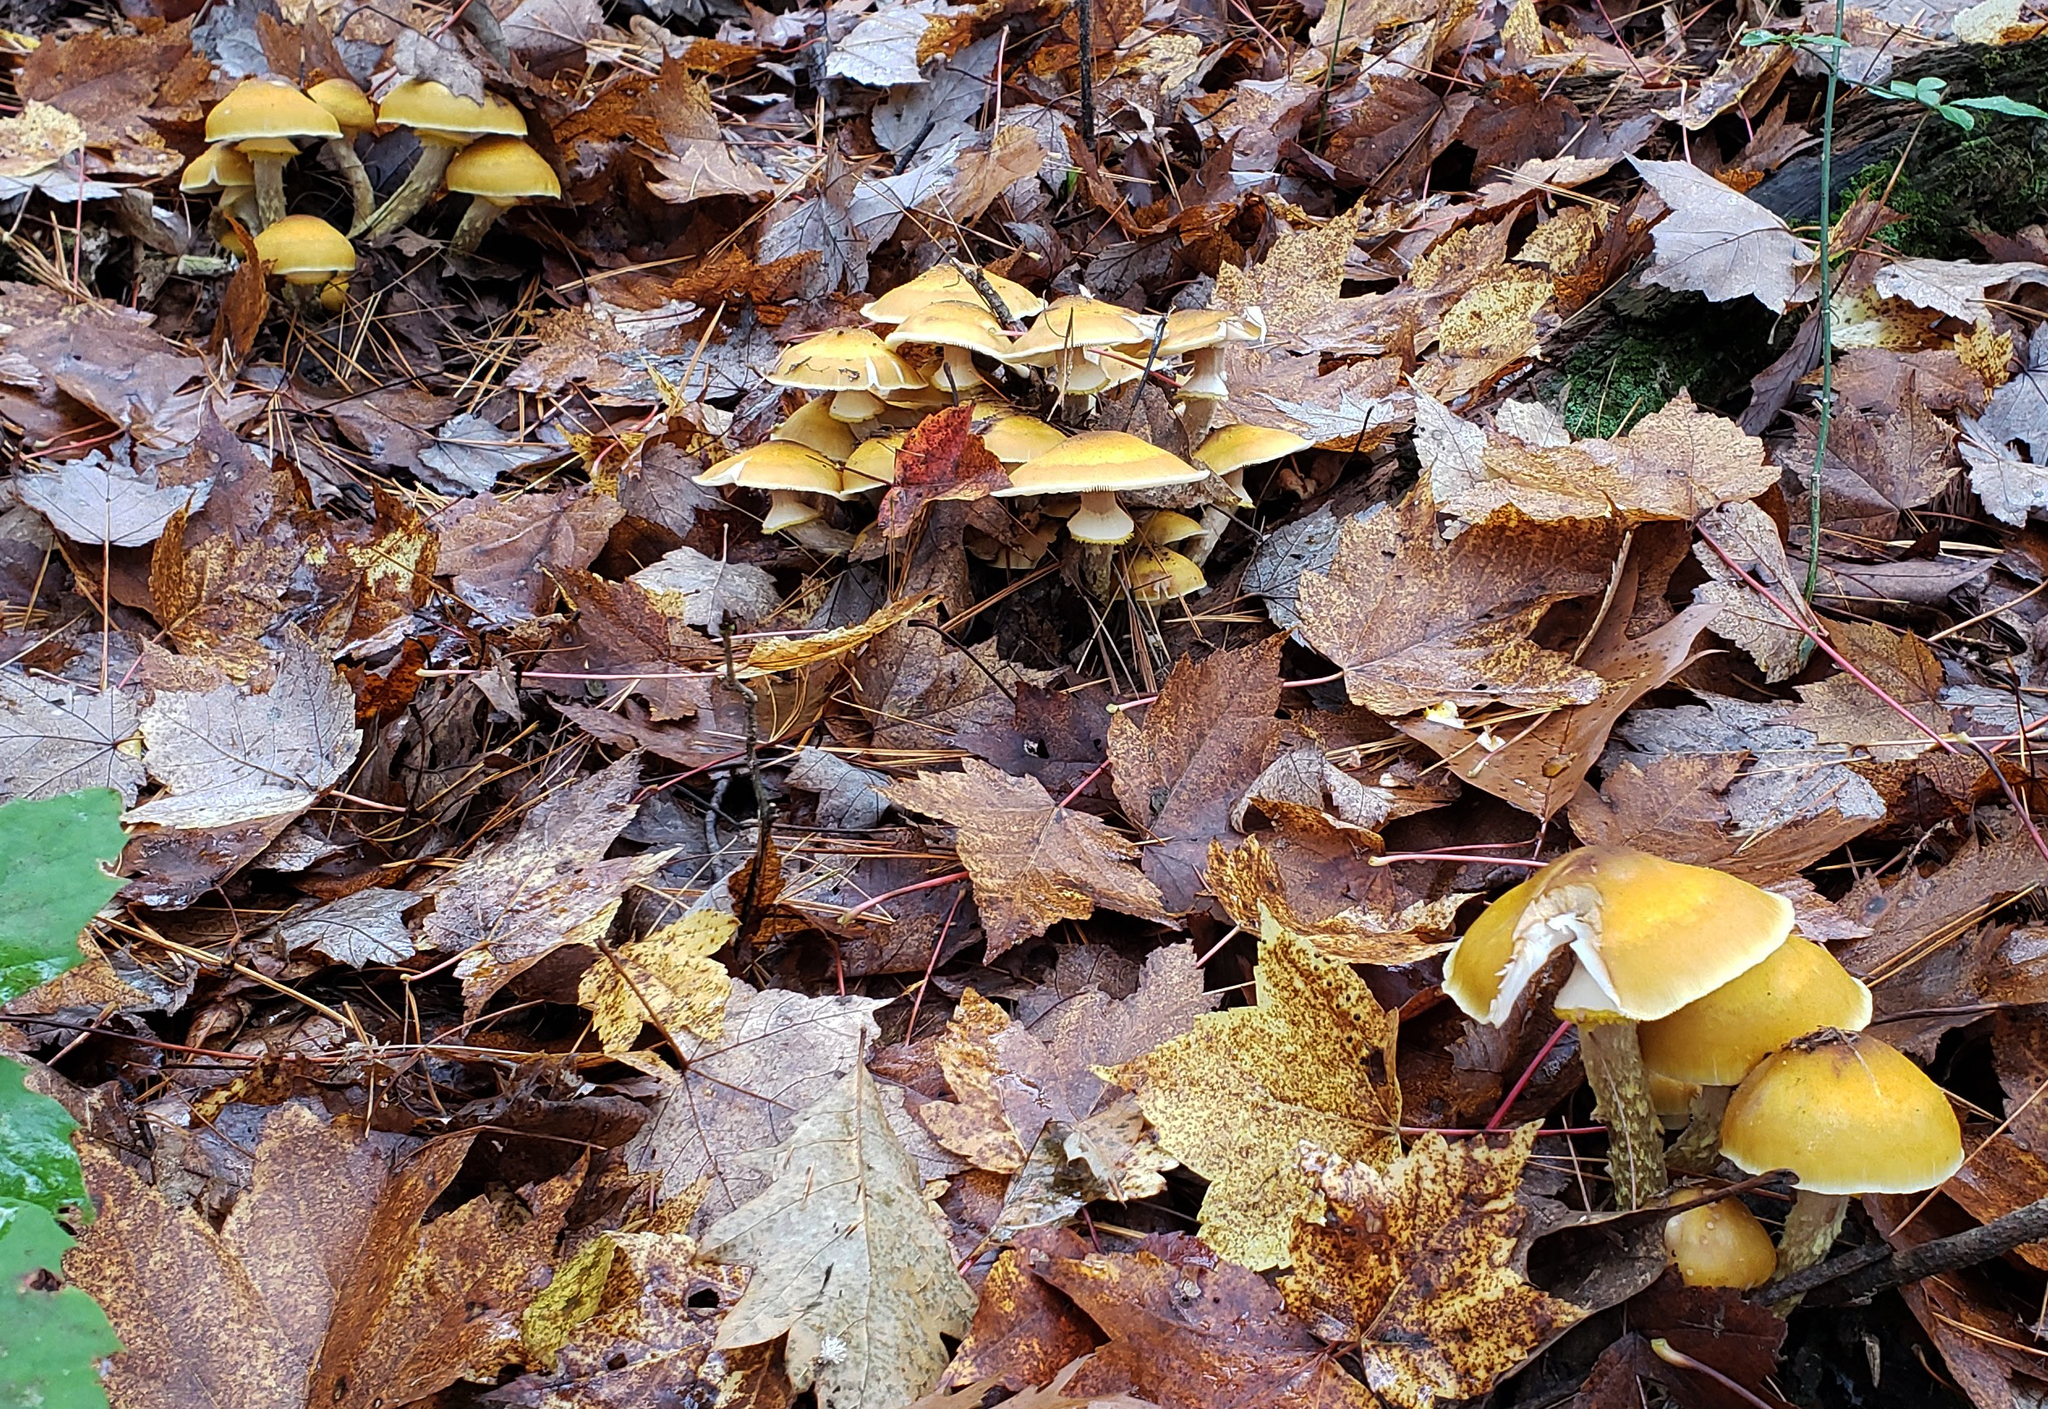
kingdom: Fungi
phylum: Basidiomycota
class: Agaricomycetes
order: Agaricales
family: Physalacriaceae
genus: Armillaria
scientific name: Armillaria mellea
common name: Honey fungus
